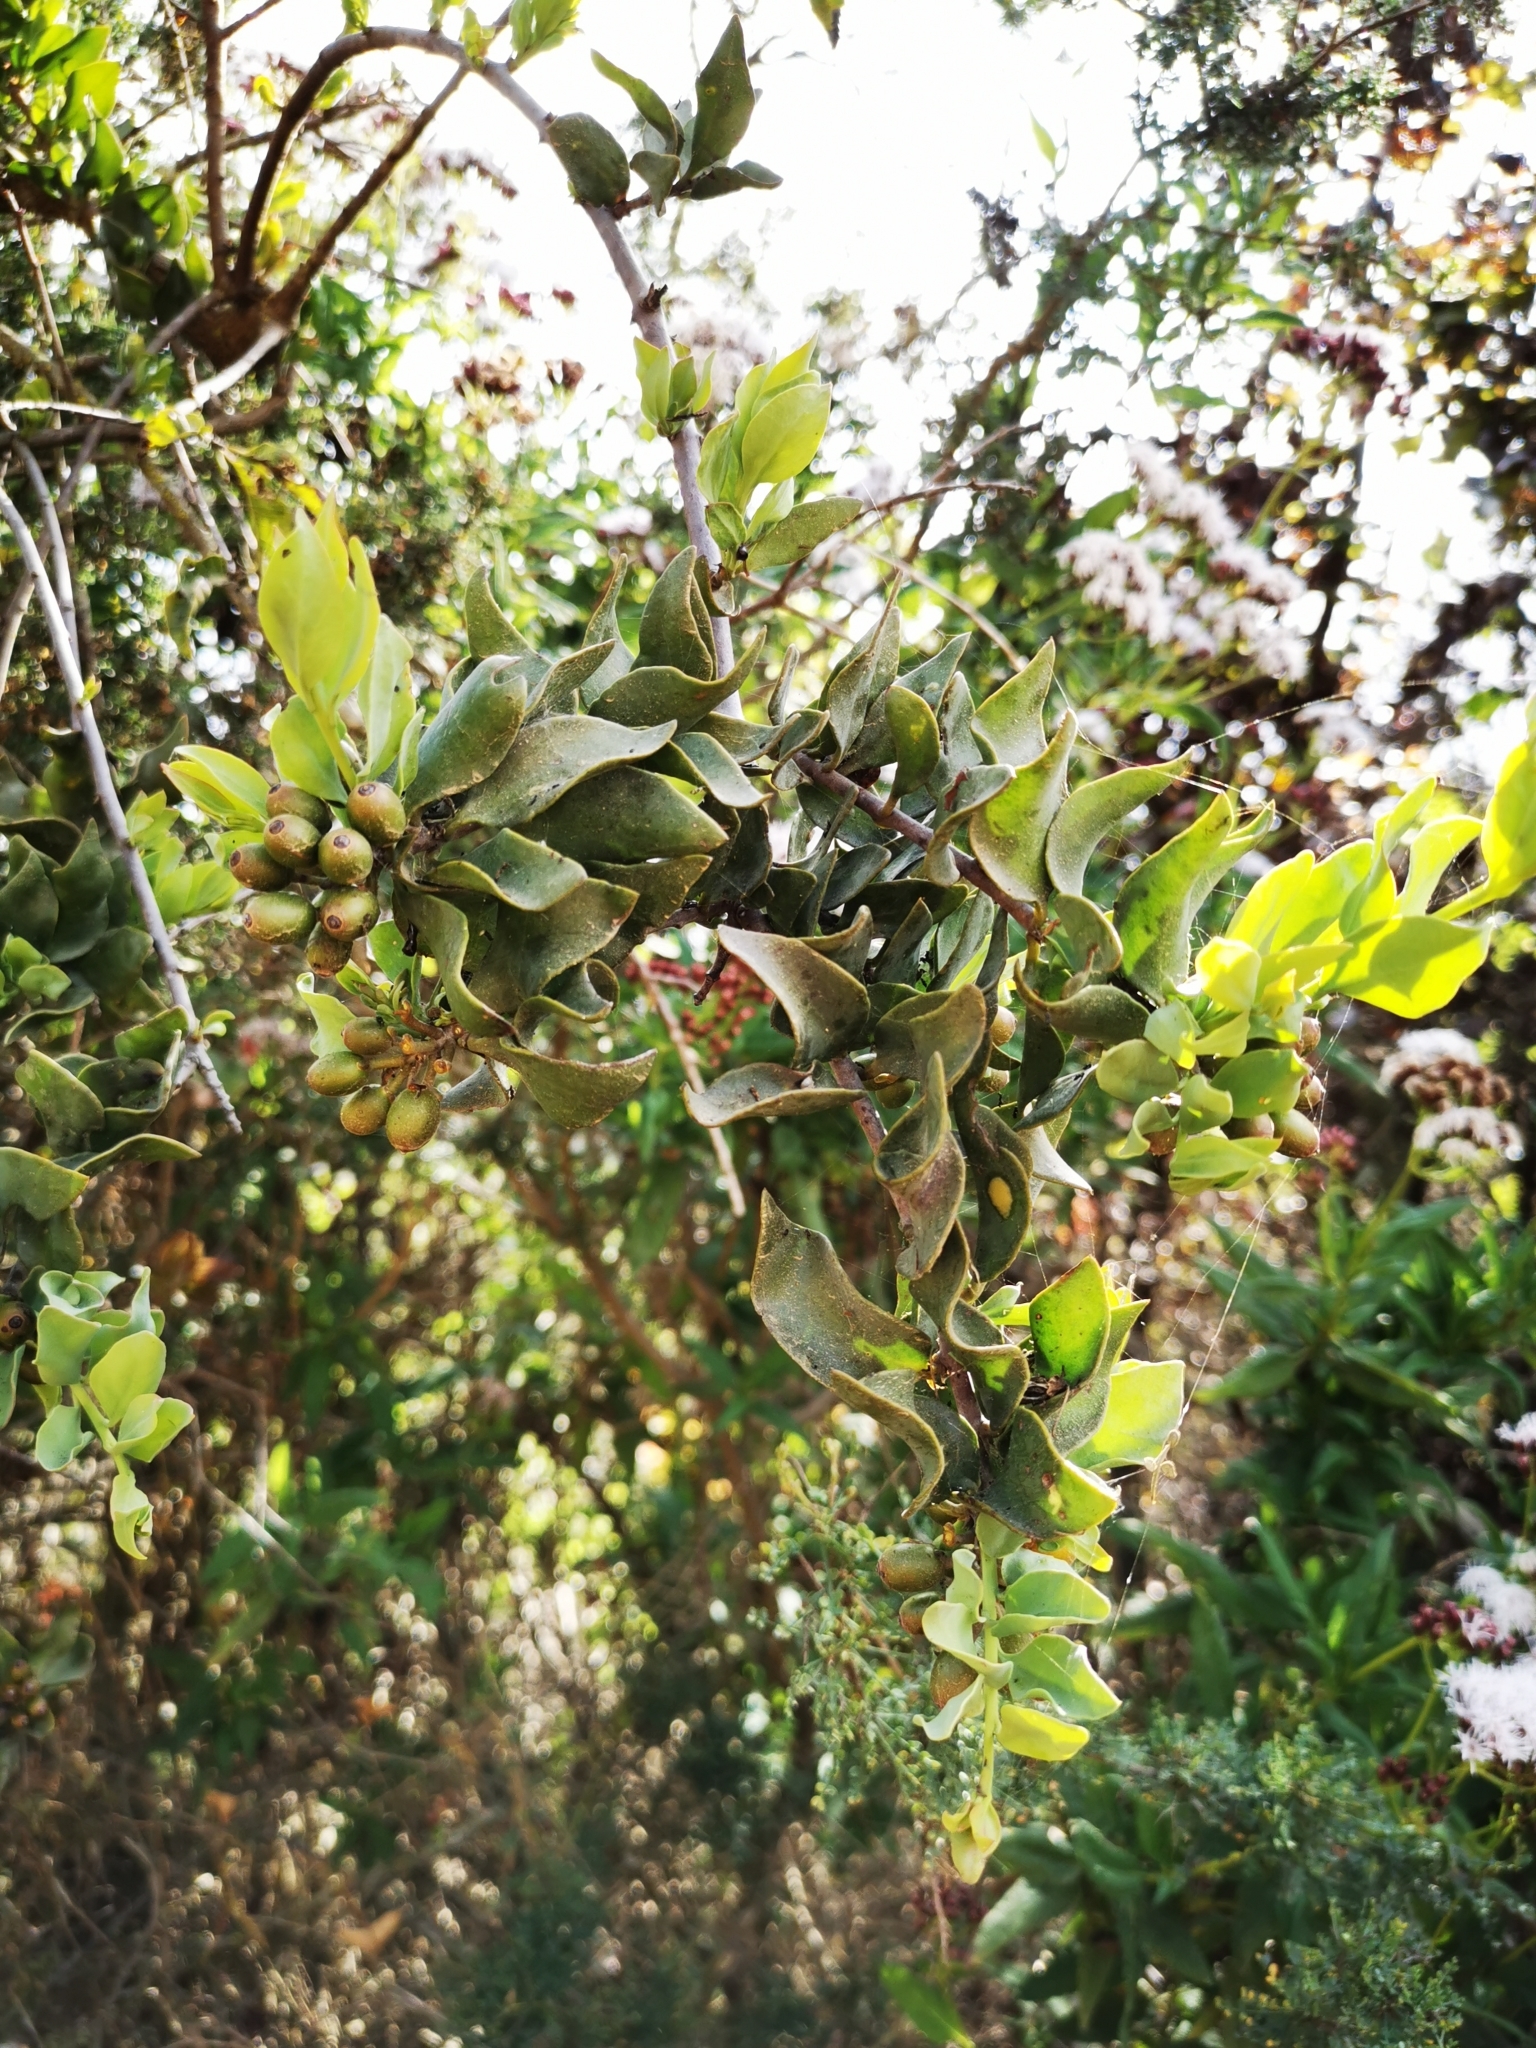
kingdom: Plantae
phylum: Tracheophyta
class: Magnoliopsida
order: Santalales
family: Loranthaceae
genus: Tristerix
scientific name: Tristerix verticillatus
